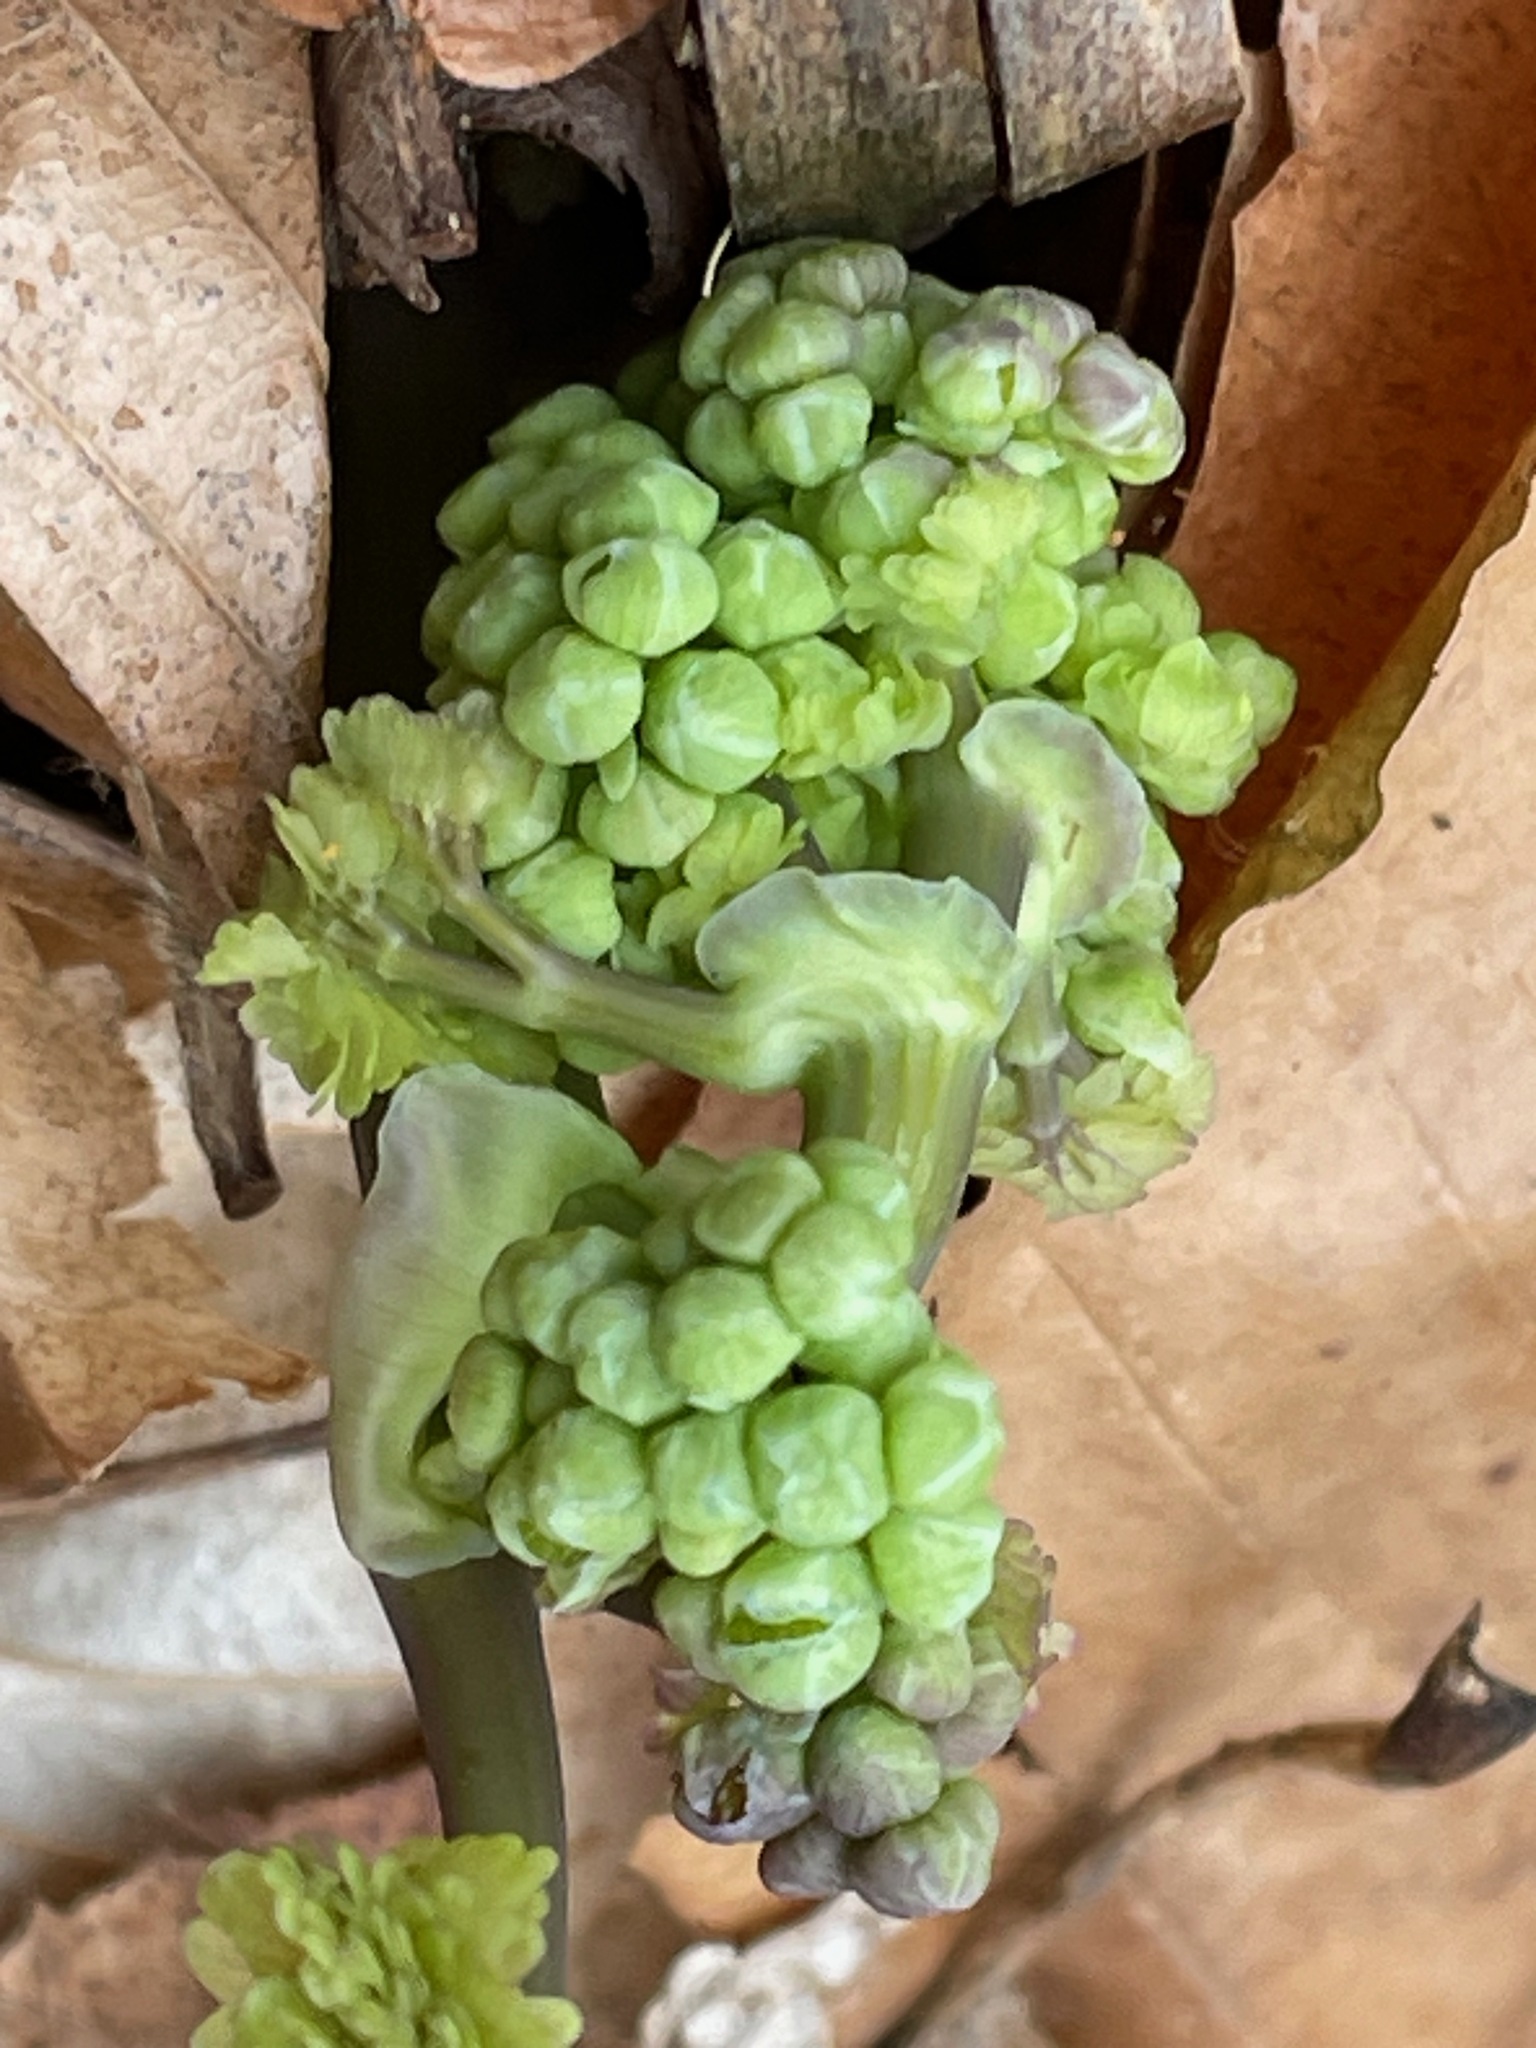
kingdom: Plantae
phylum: Tracheophyta
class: Magnoliopsida
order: Ranunculales
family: Ranunculaceae
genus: Thalictrum
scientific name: Thalictrum dioicum
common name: Early meadow-rue
